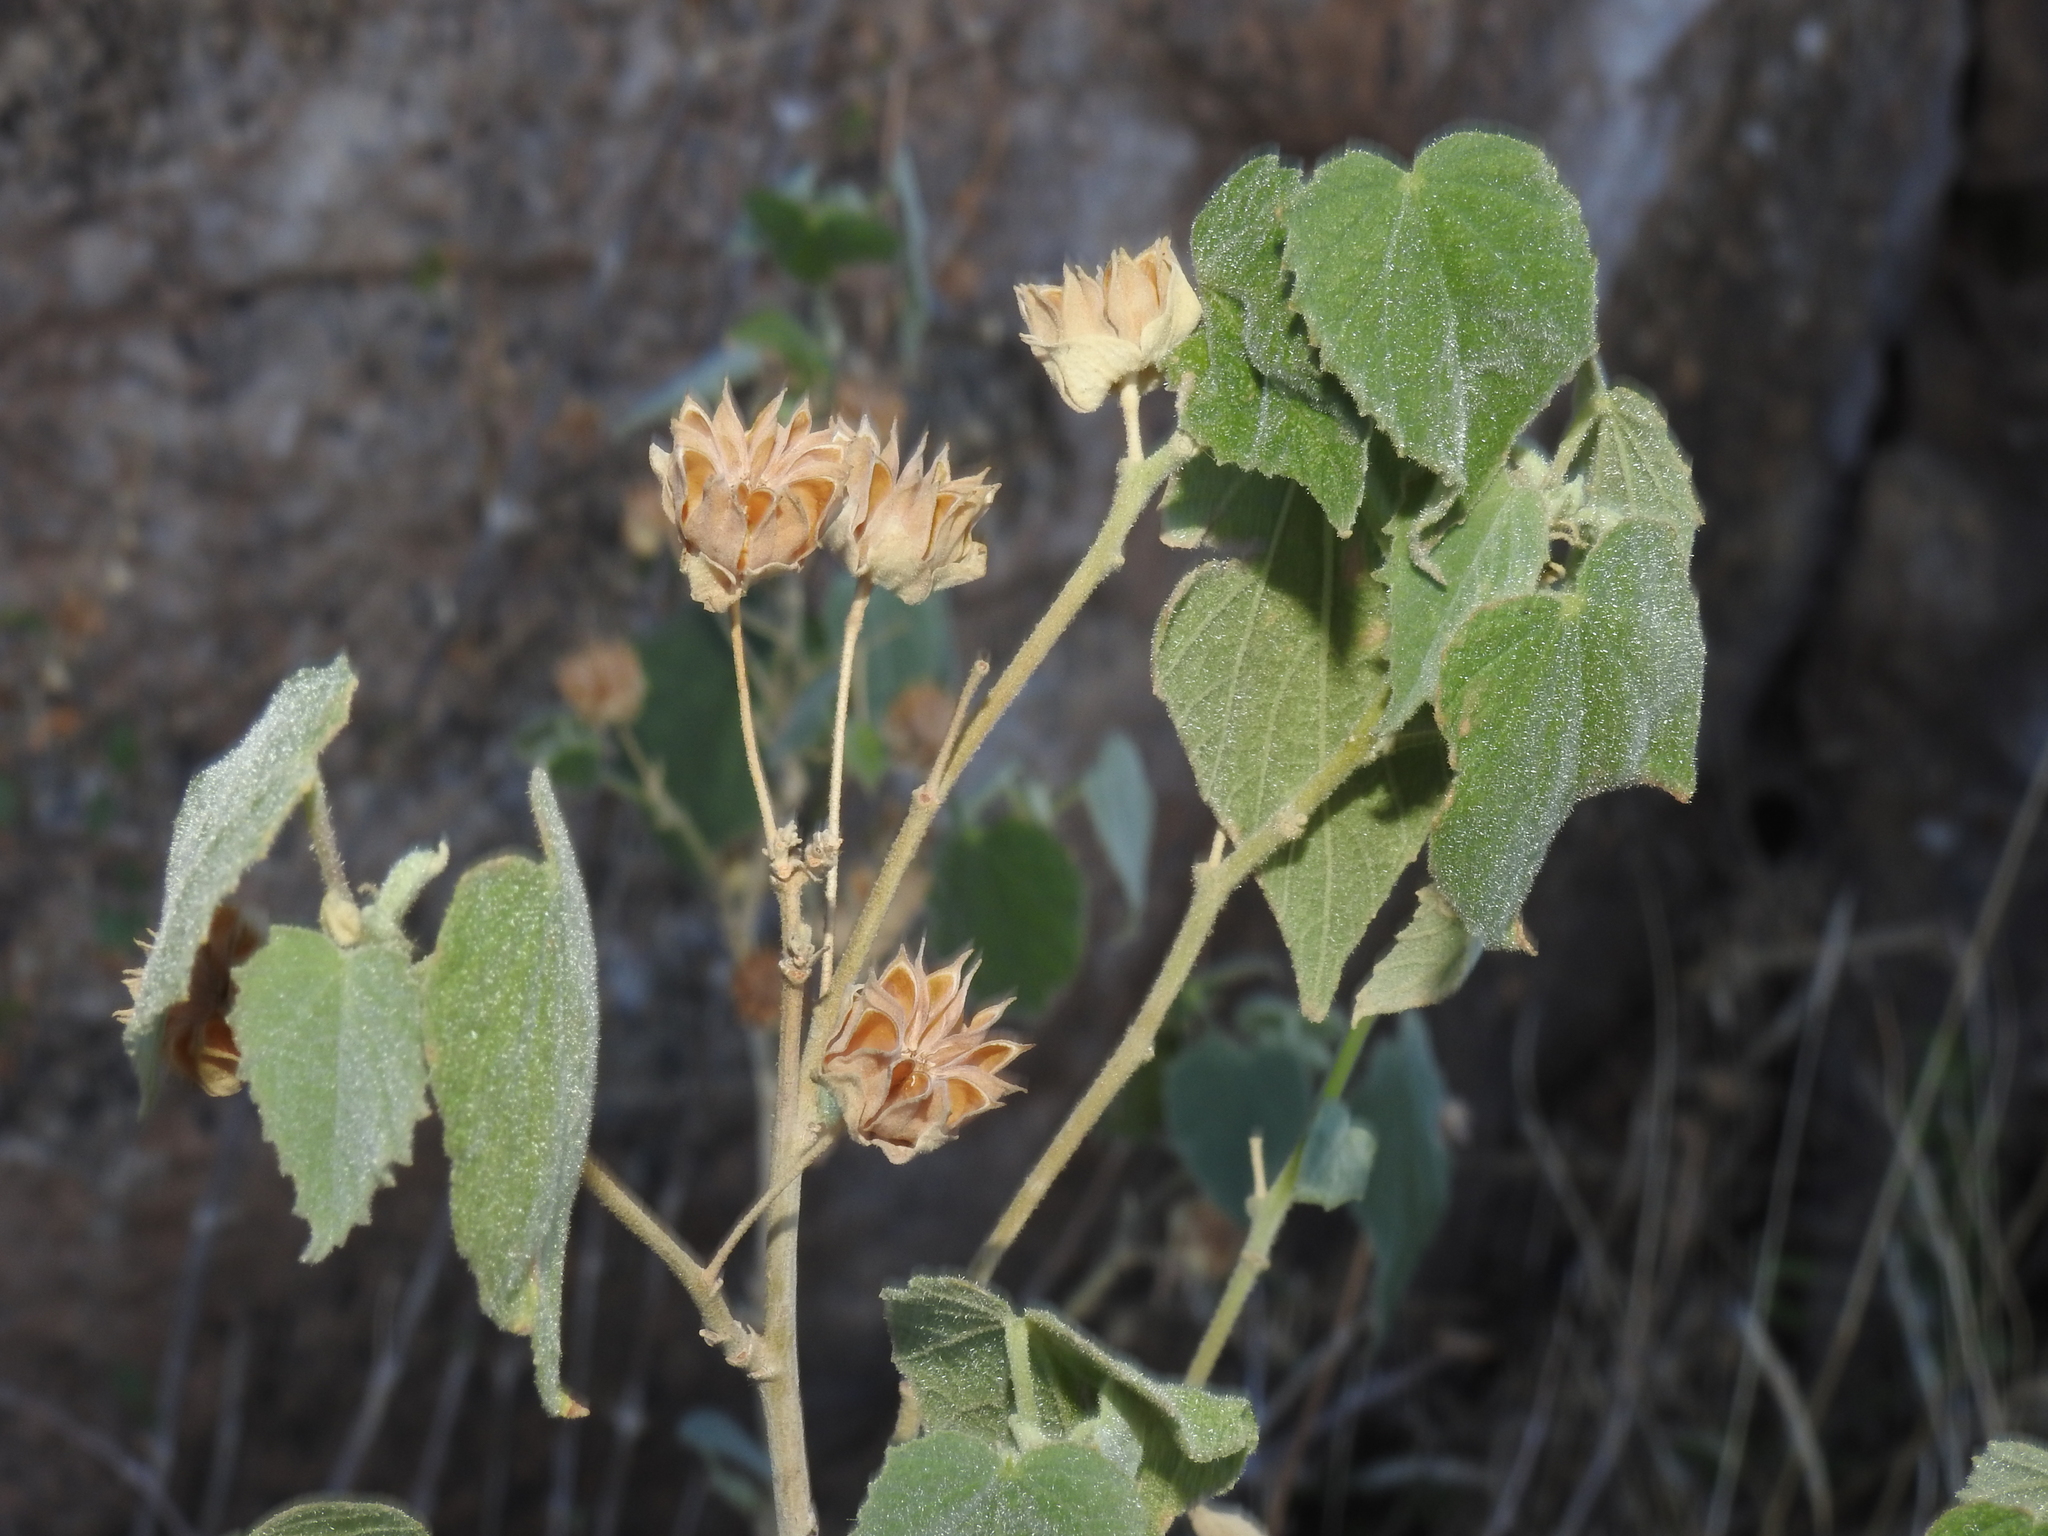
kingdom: Plantae
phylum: Tracheophyta
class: Magnoliopsida
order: Malvales
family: Malvaceae
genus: Abutilon
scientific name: Abutilon abutiloides
